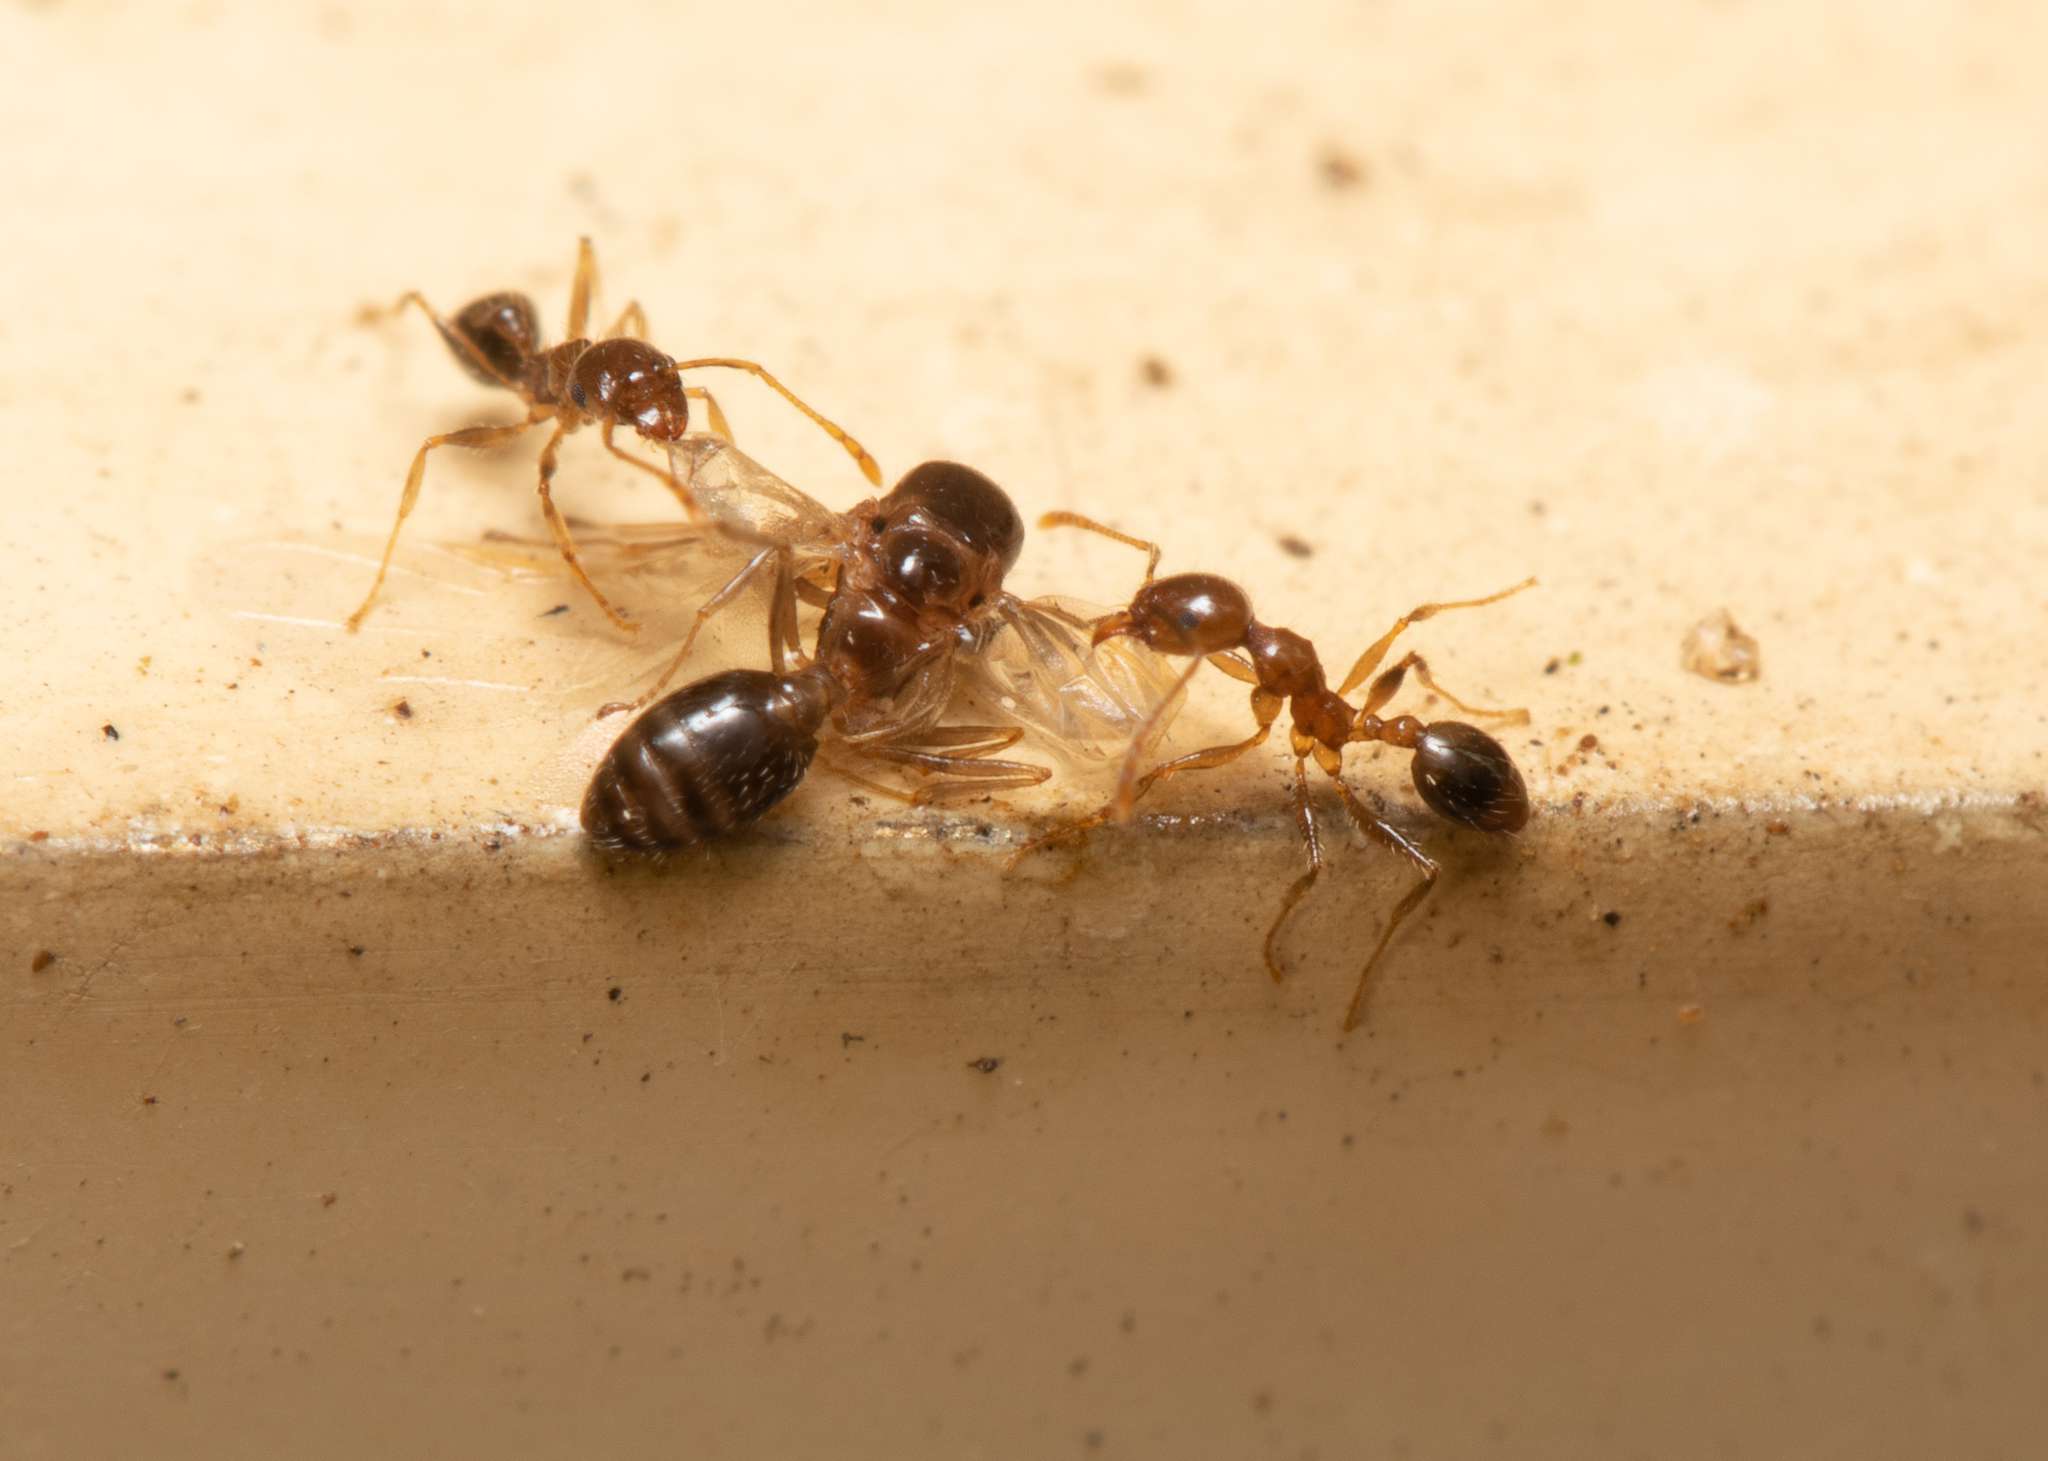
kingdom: Animalia
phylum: Arthropoda
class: Insecta
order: Hymenoptera
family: Formicidae
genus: Pheidole
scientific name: Pheidole megacephala
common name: Bigheaded ant
